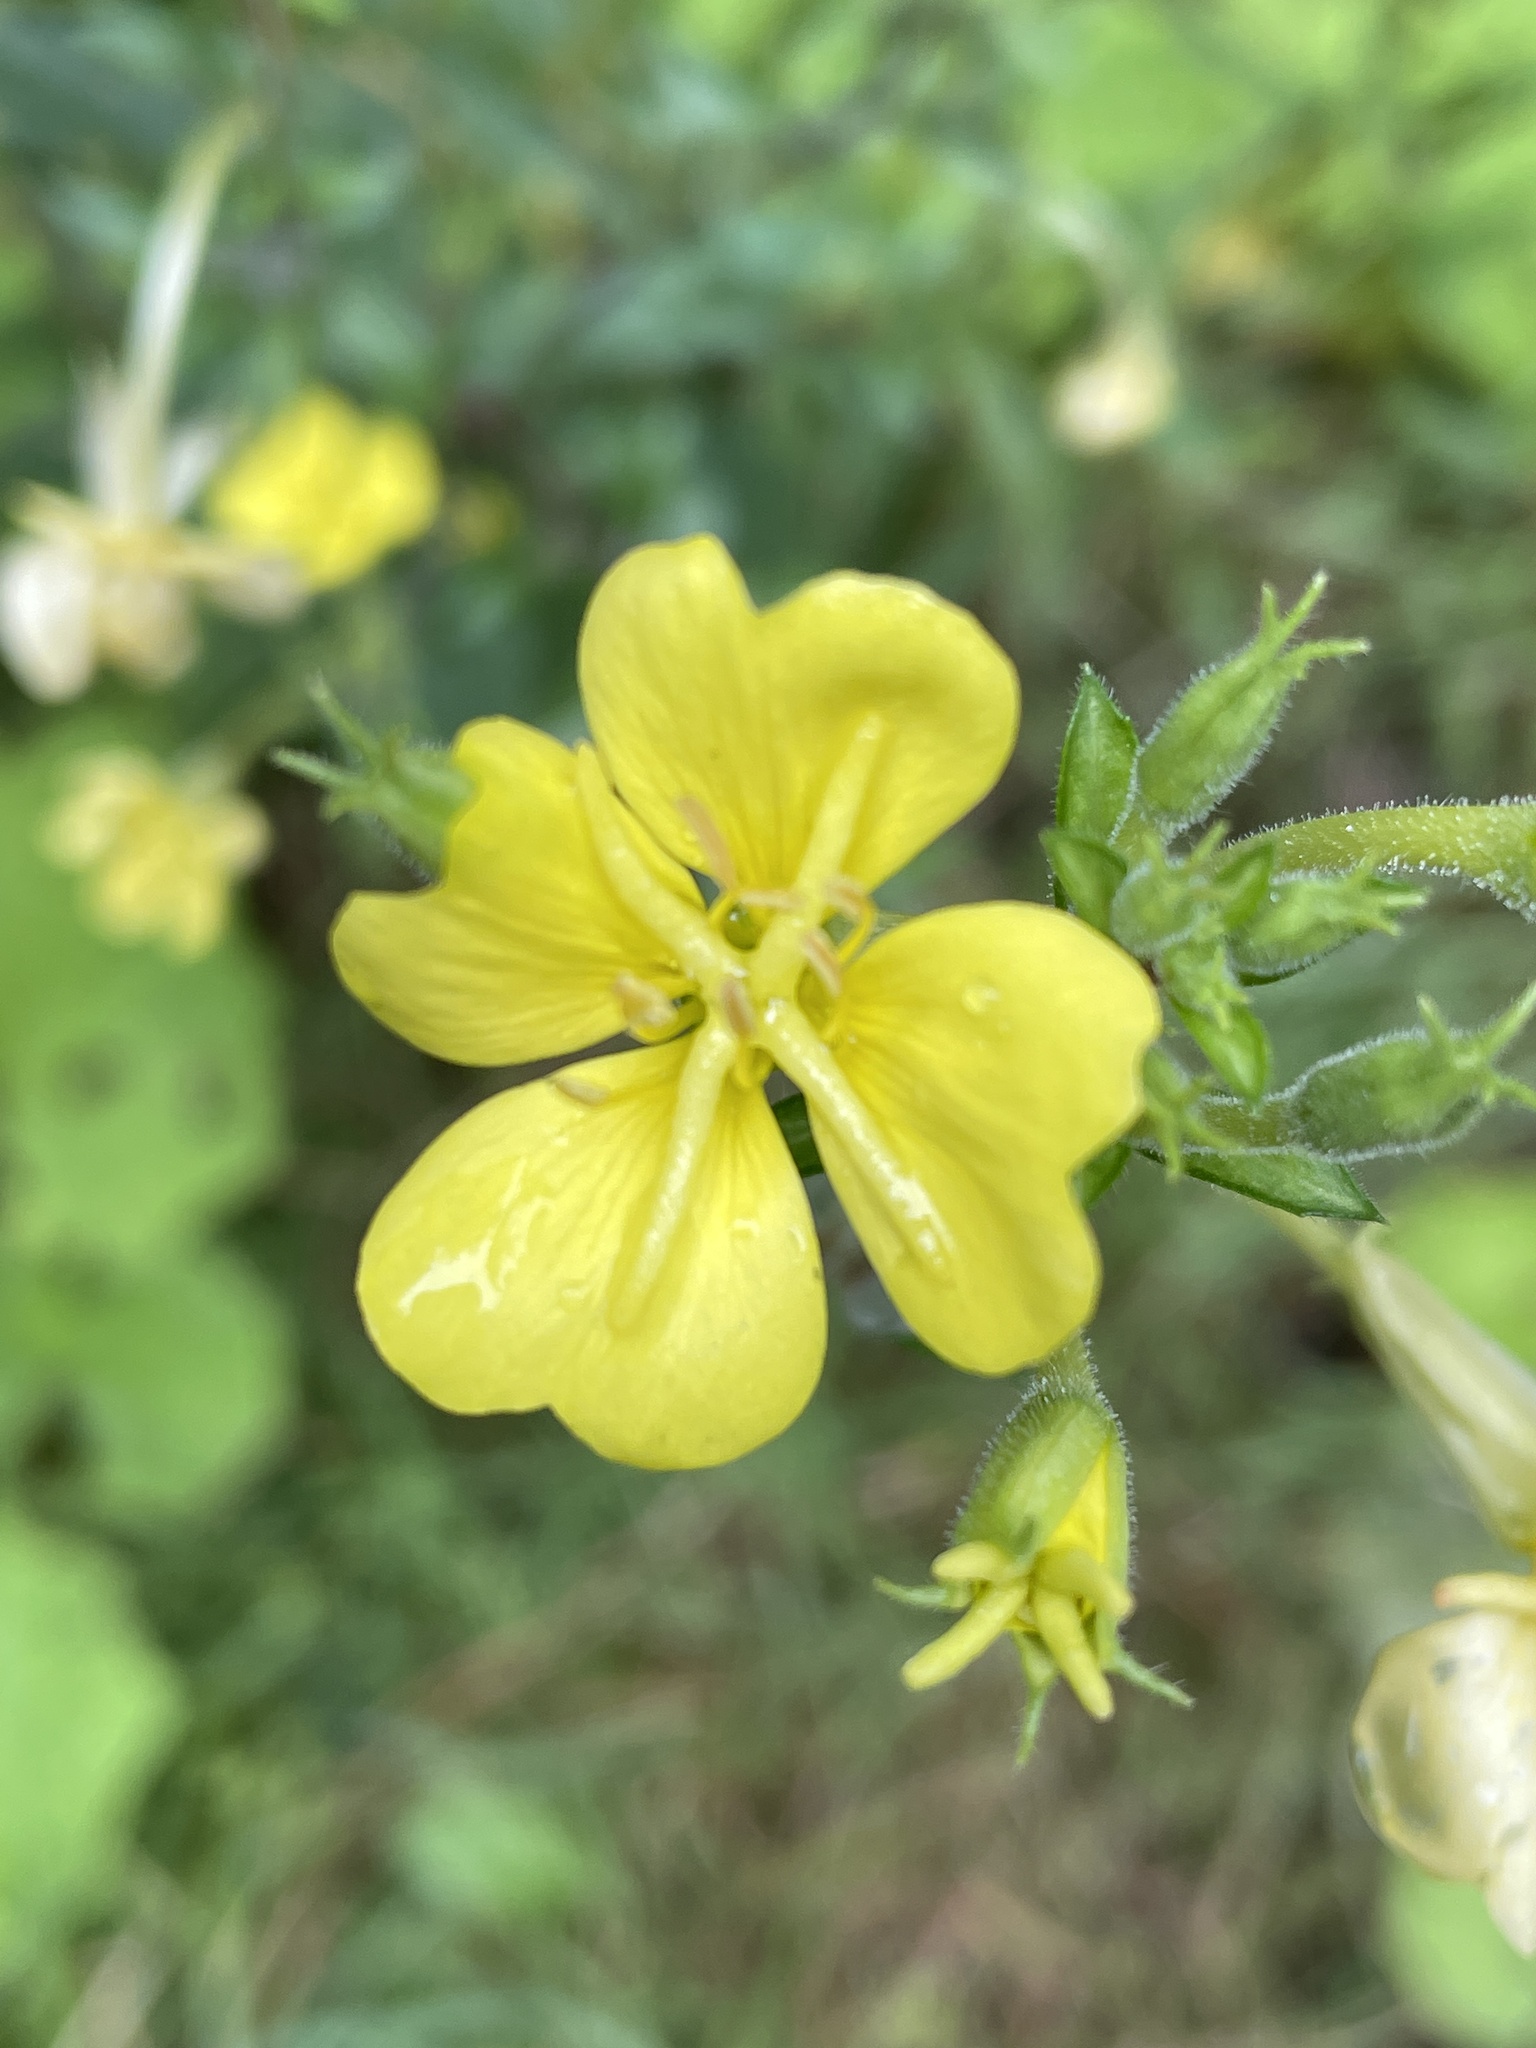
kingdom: Plantae
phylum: Tracheophyta
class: Magnoliopsida
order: Myrtales
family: Onagraceae
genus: Oenothera
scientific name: Oenothera parviflora
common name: Least evening-primrose
